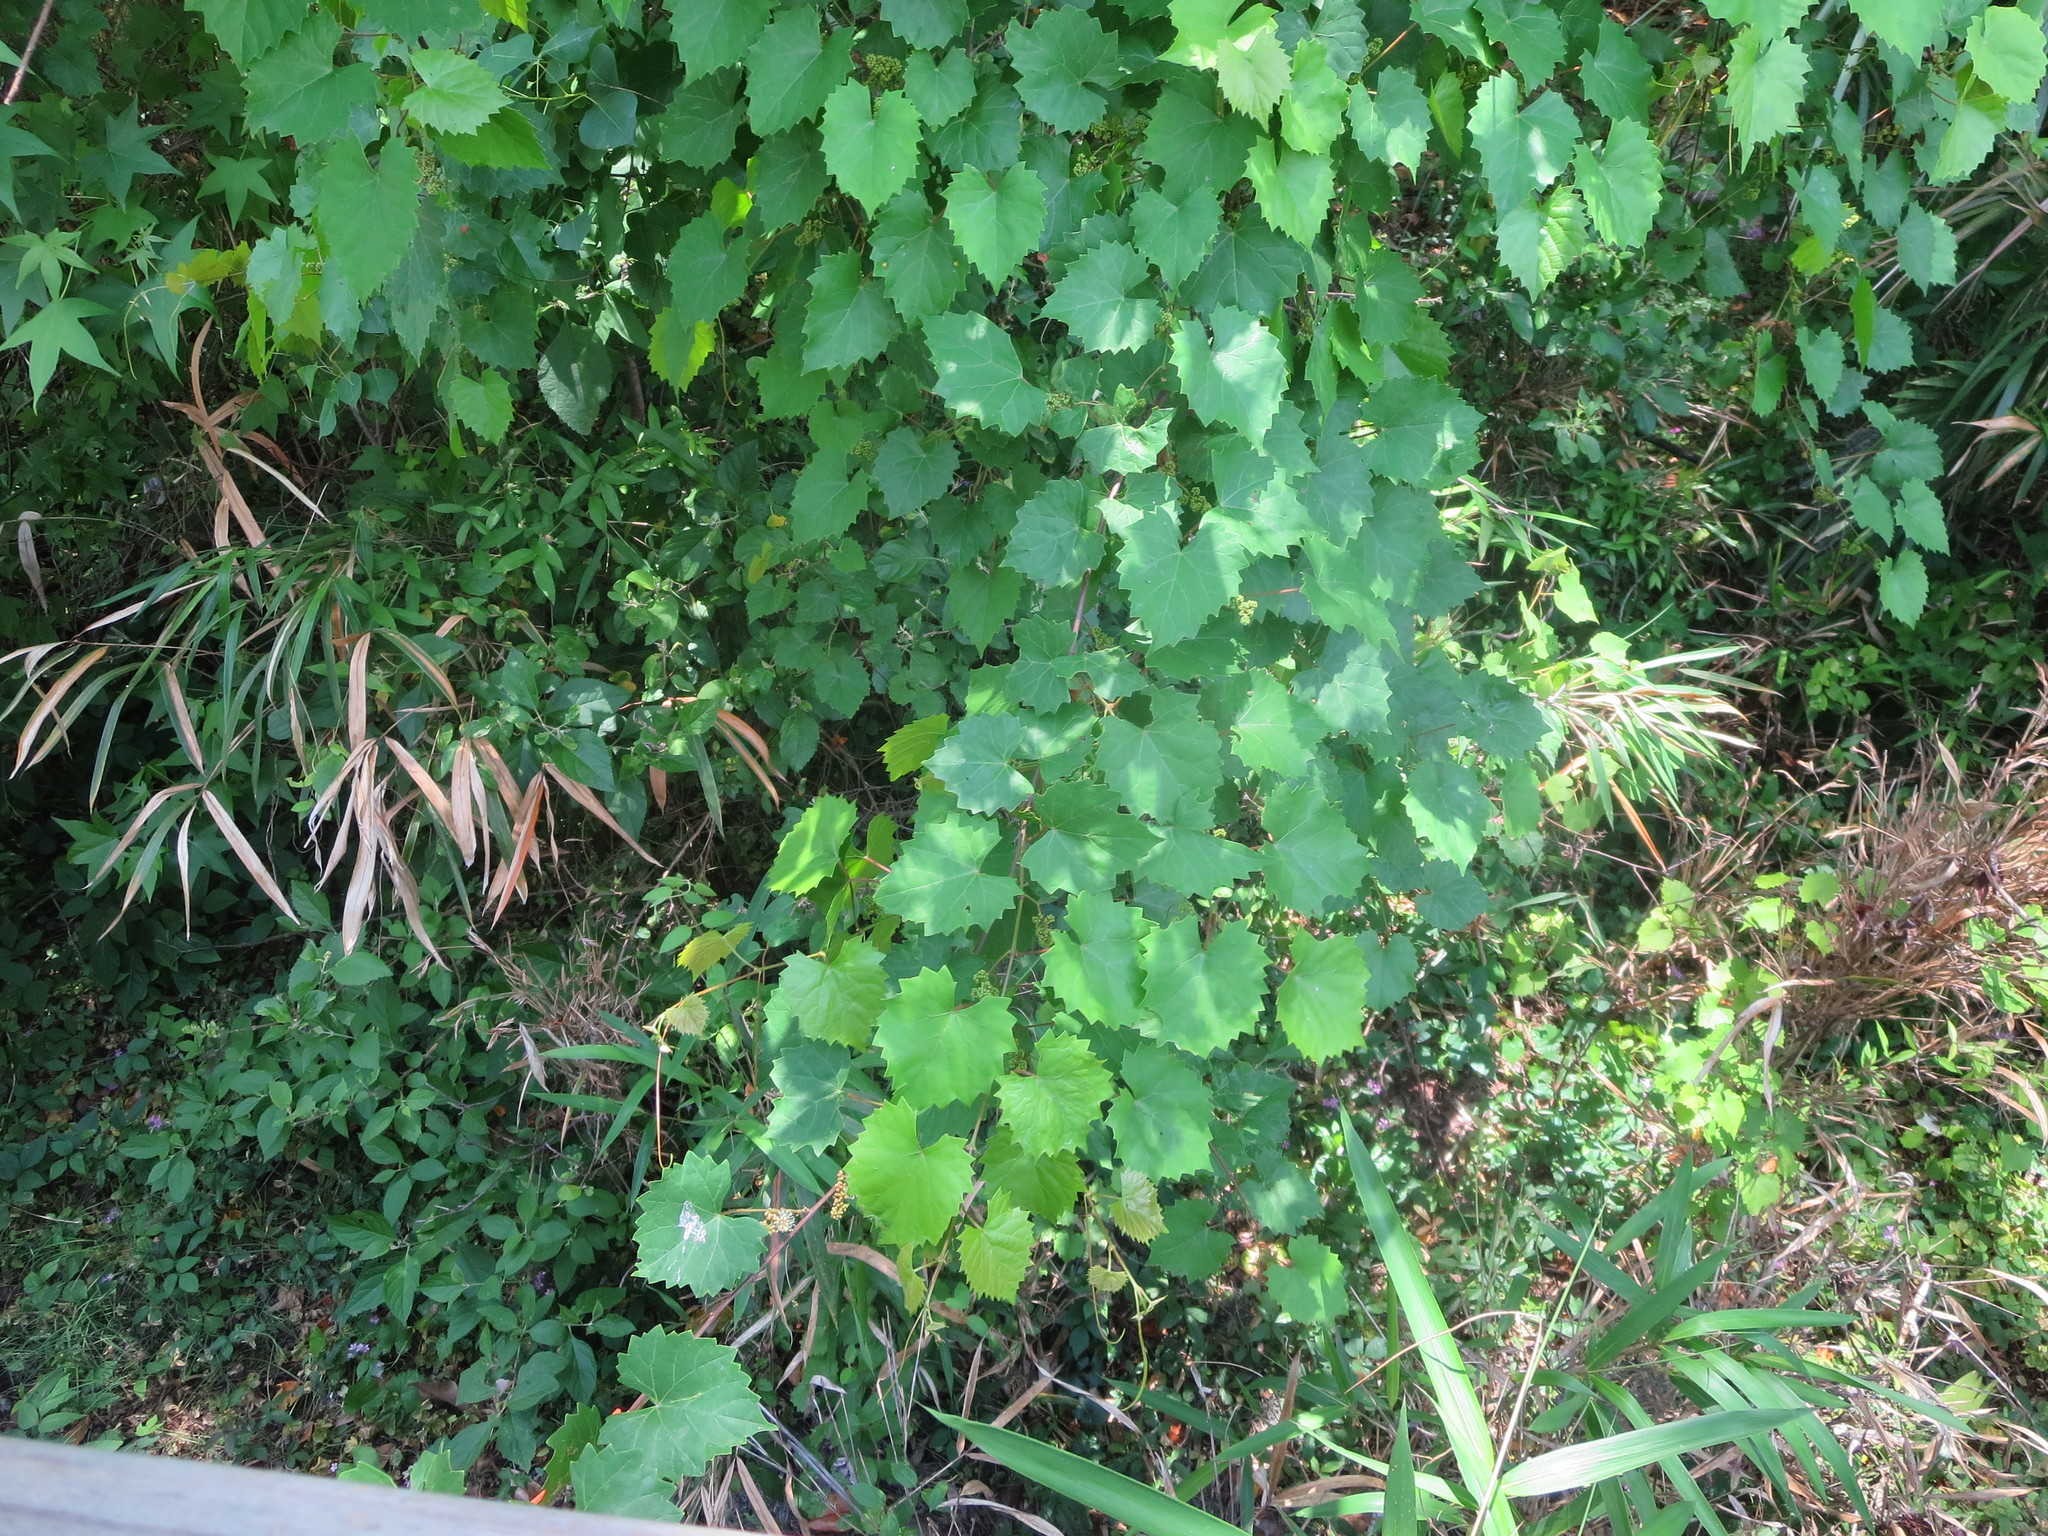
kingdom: Plantae
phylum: Tracheophyta
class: Magnoliopsida
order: Vitales
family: Vitaceae
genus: Vitis
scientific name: Vitis rotundifolia
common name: Muscadine grape
